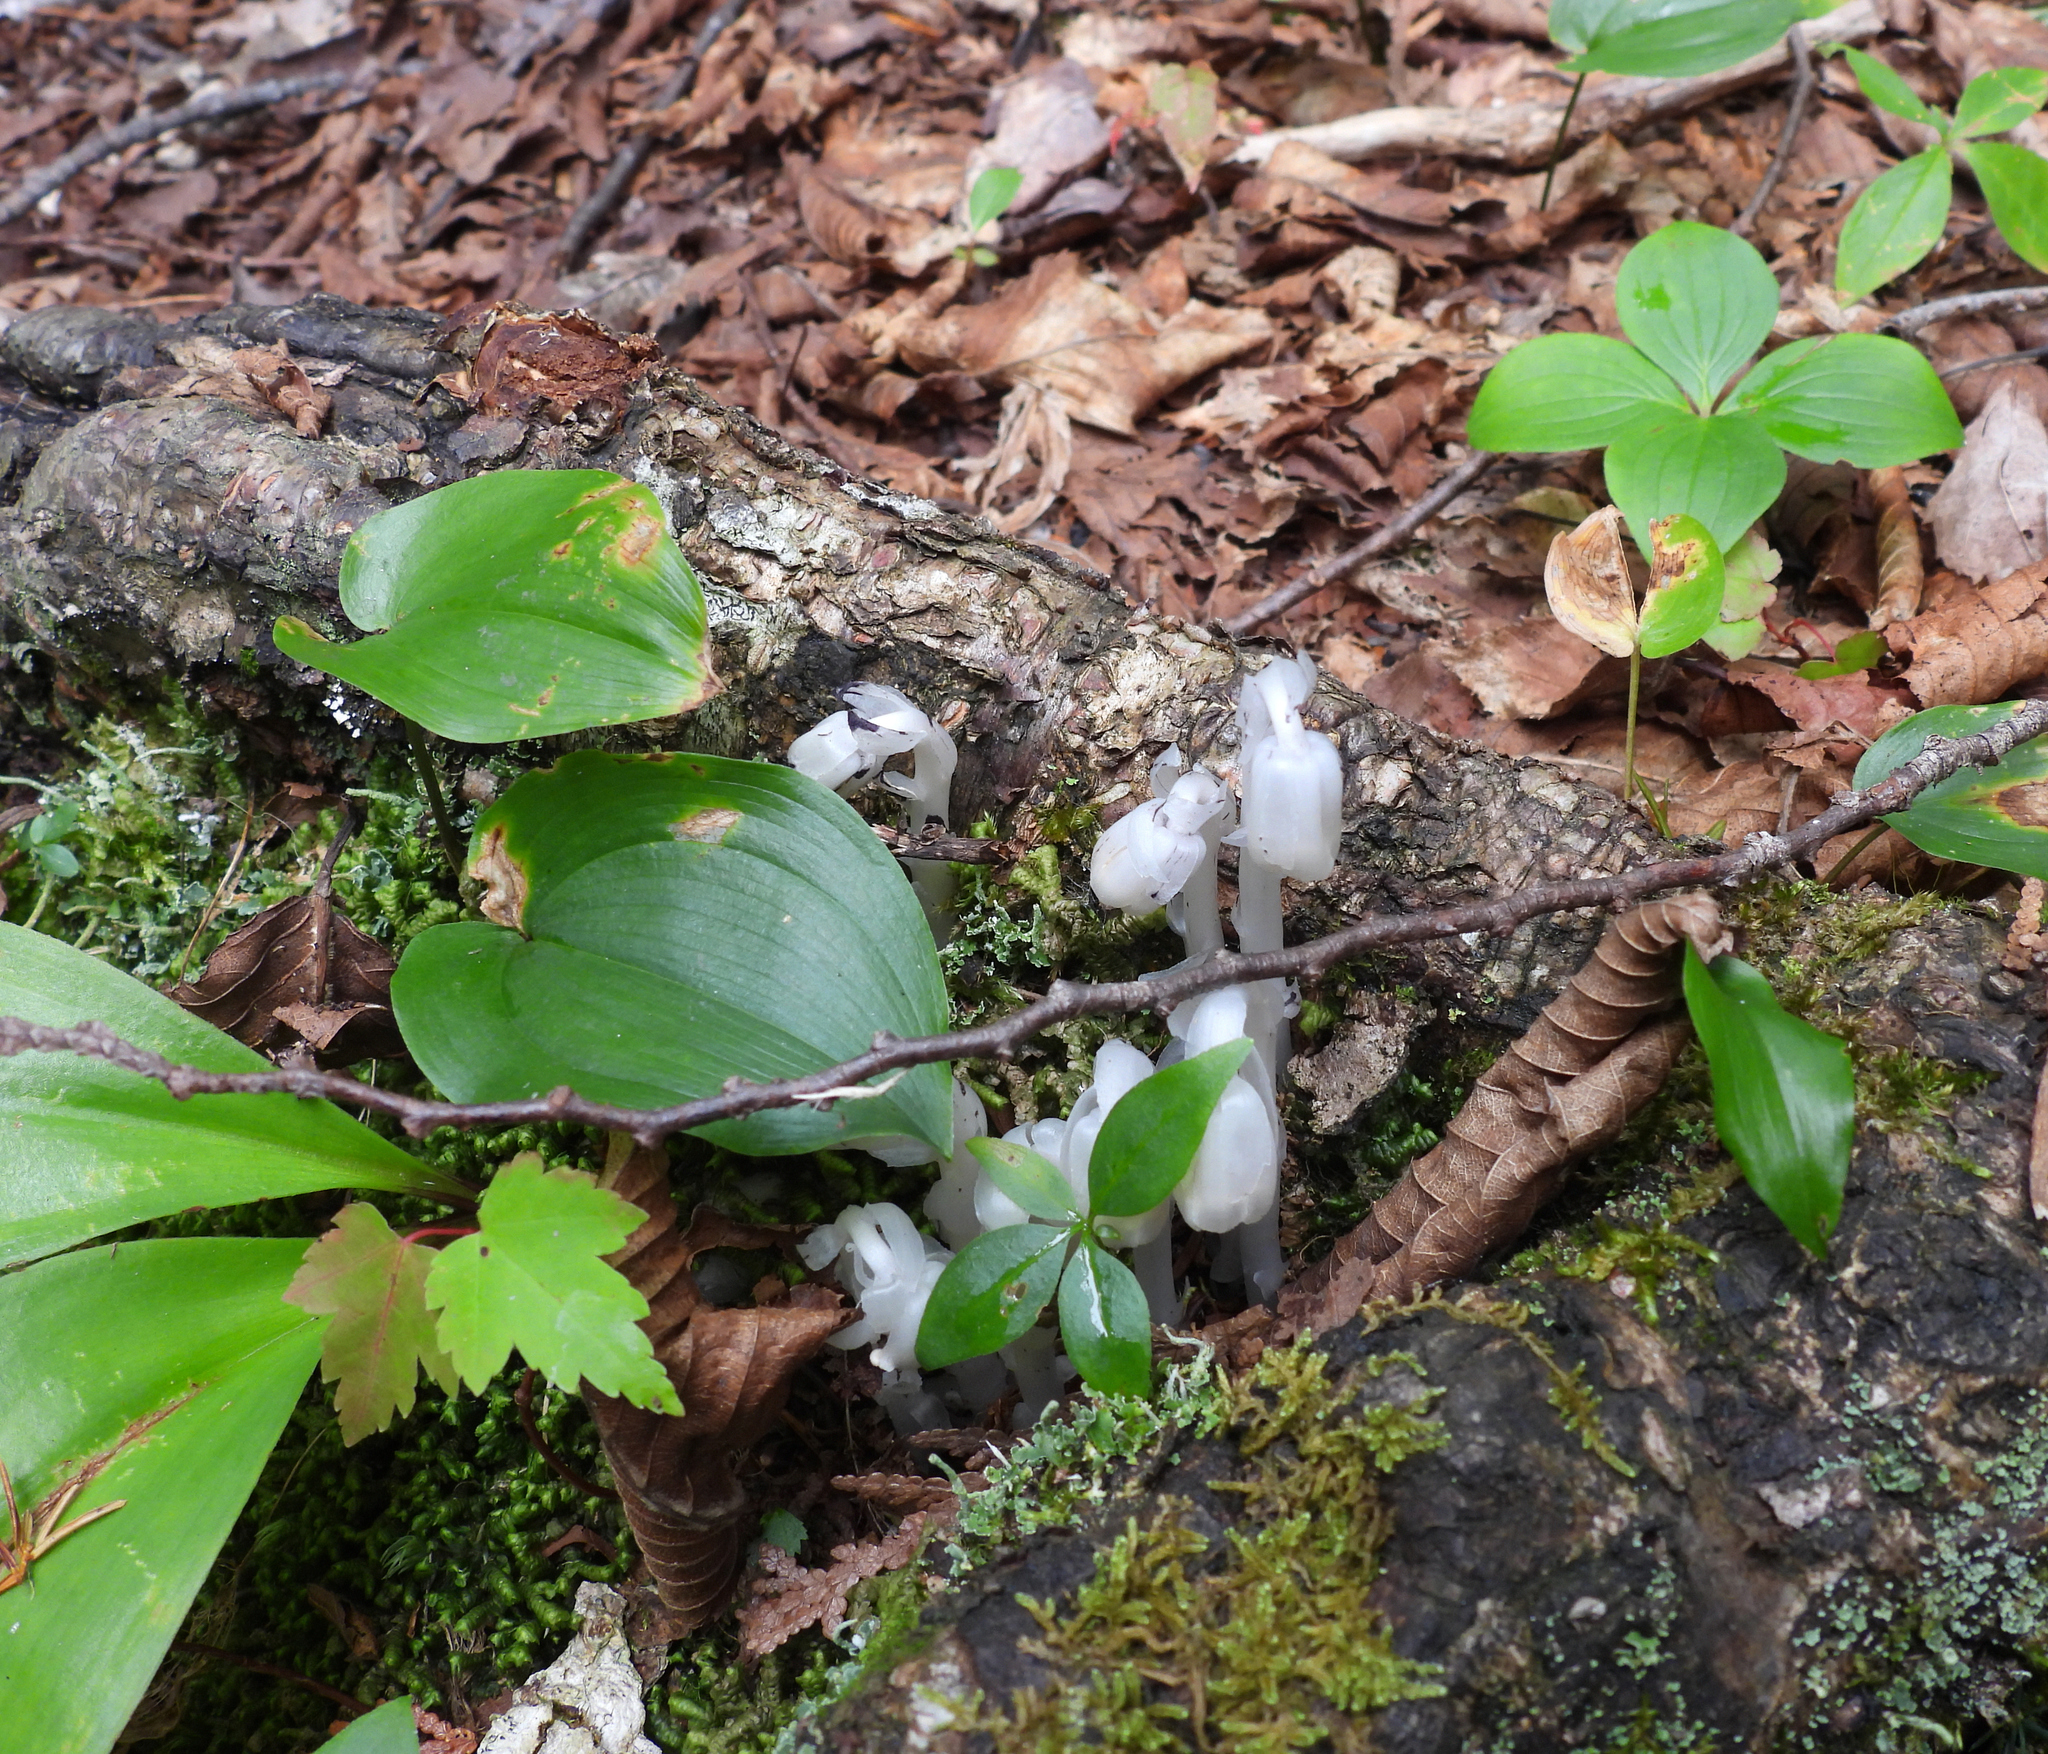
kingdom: Plantae
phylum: Tracheophyta
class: Magnoliopsida
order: Ericales
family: Ericaceae
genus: Monotropa
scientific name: Monotropa uniflora
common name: Convulsion root
